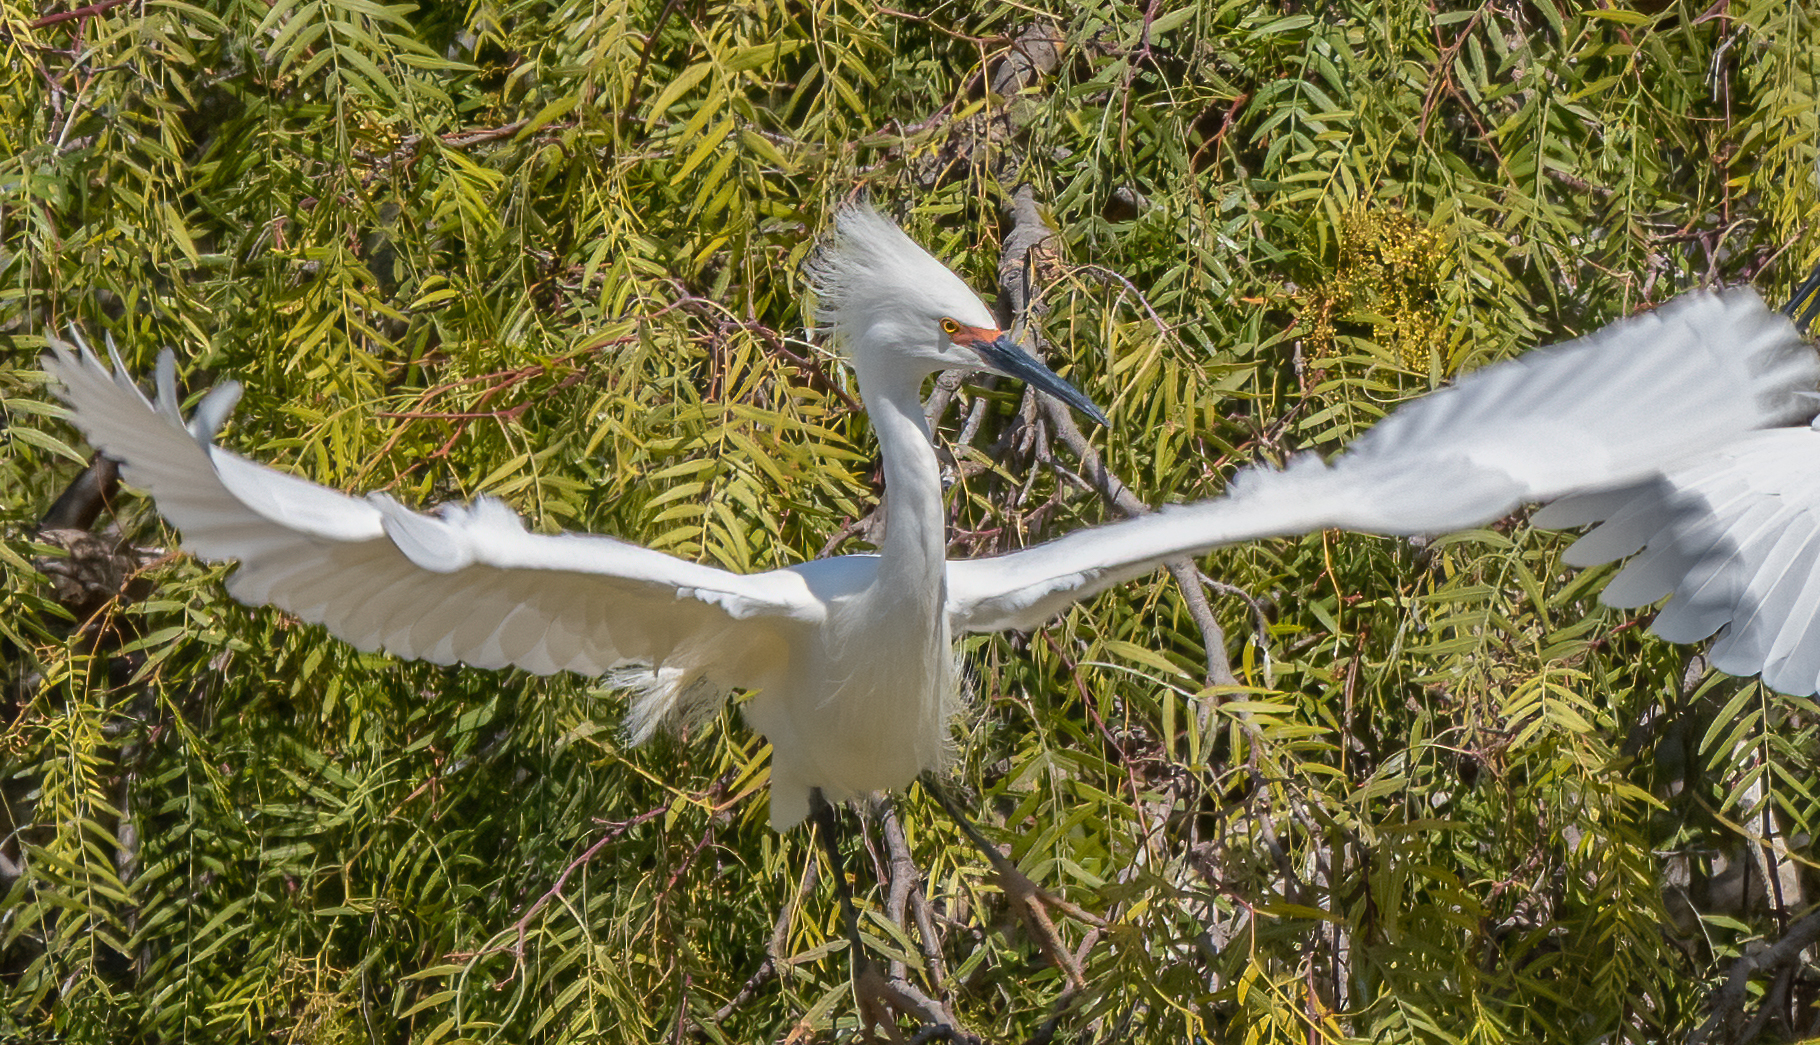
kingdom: Animalia
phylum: Chordata
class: Aves
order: Pelecaniformes
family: Ardeidae
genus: Egretta
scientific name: Egretta thula
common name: Snowy egret
